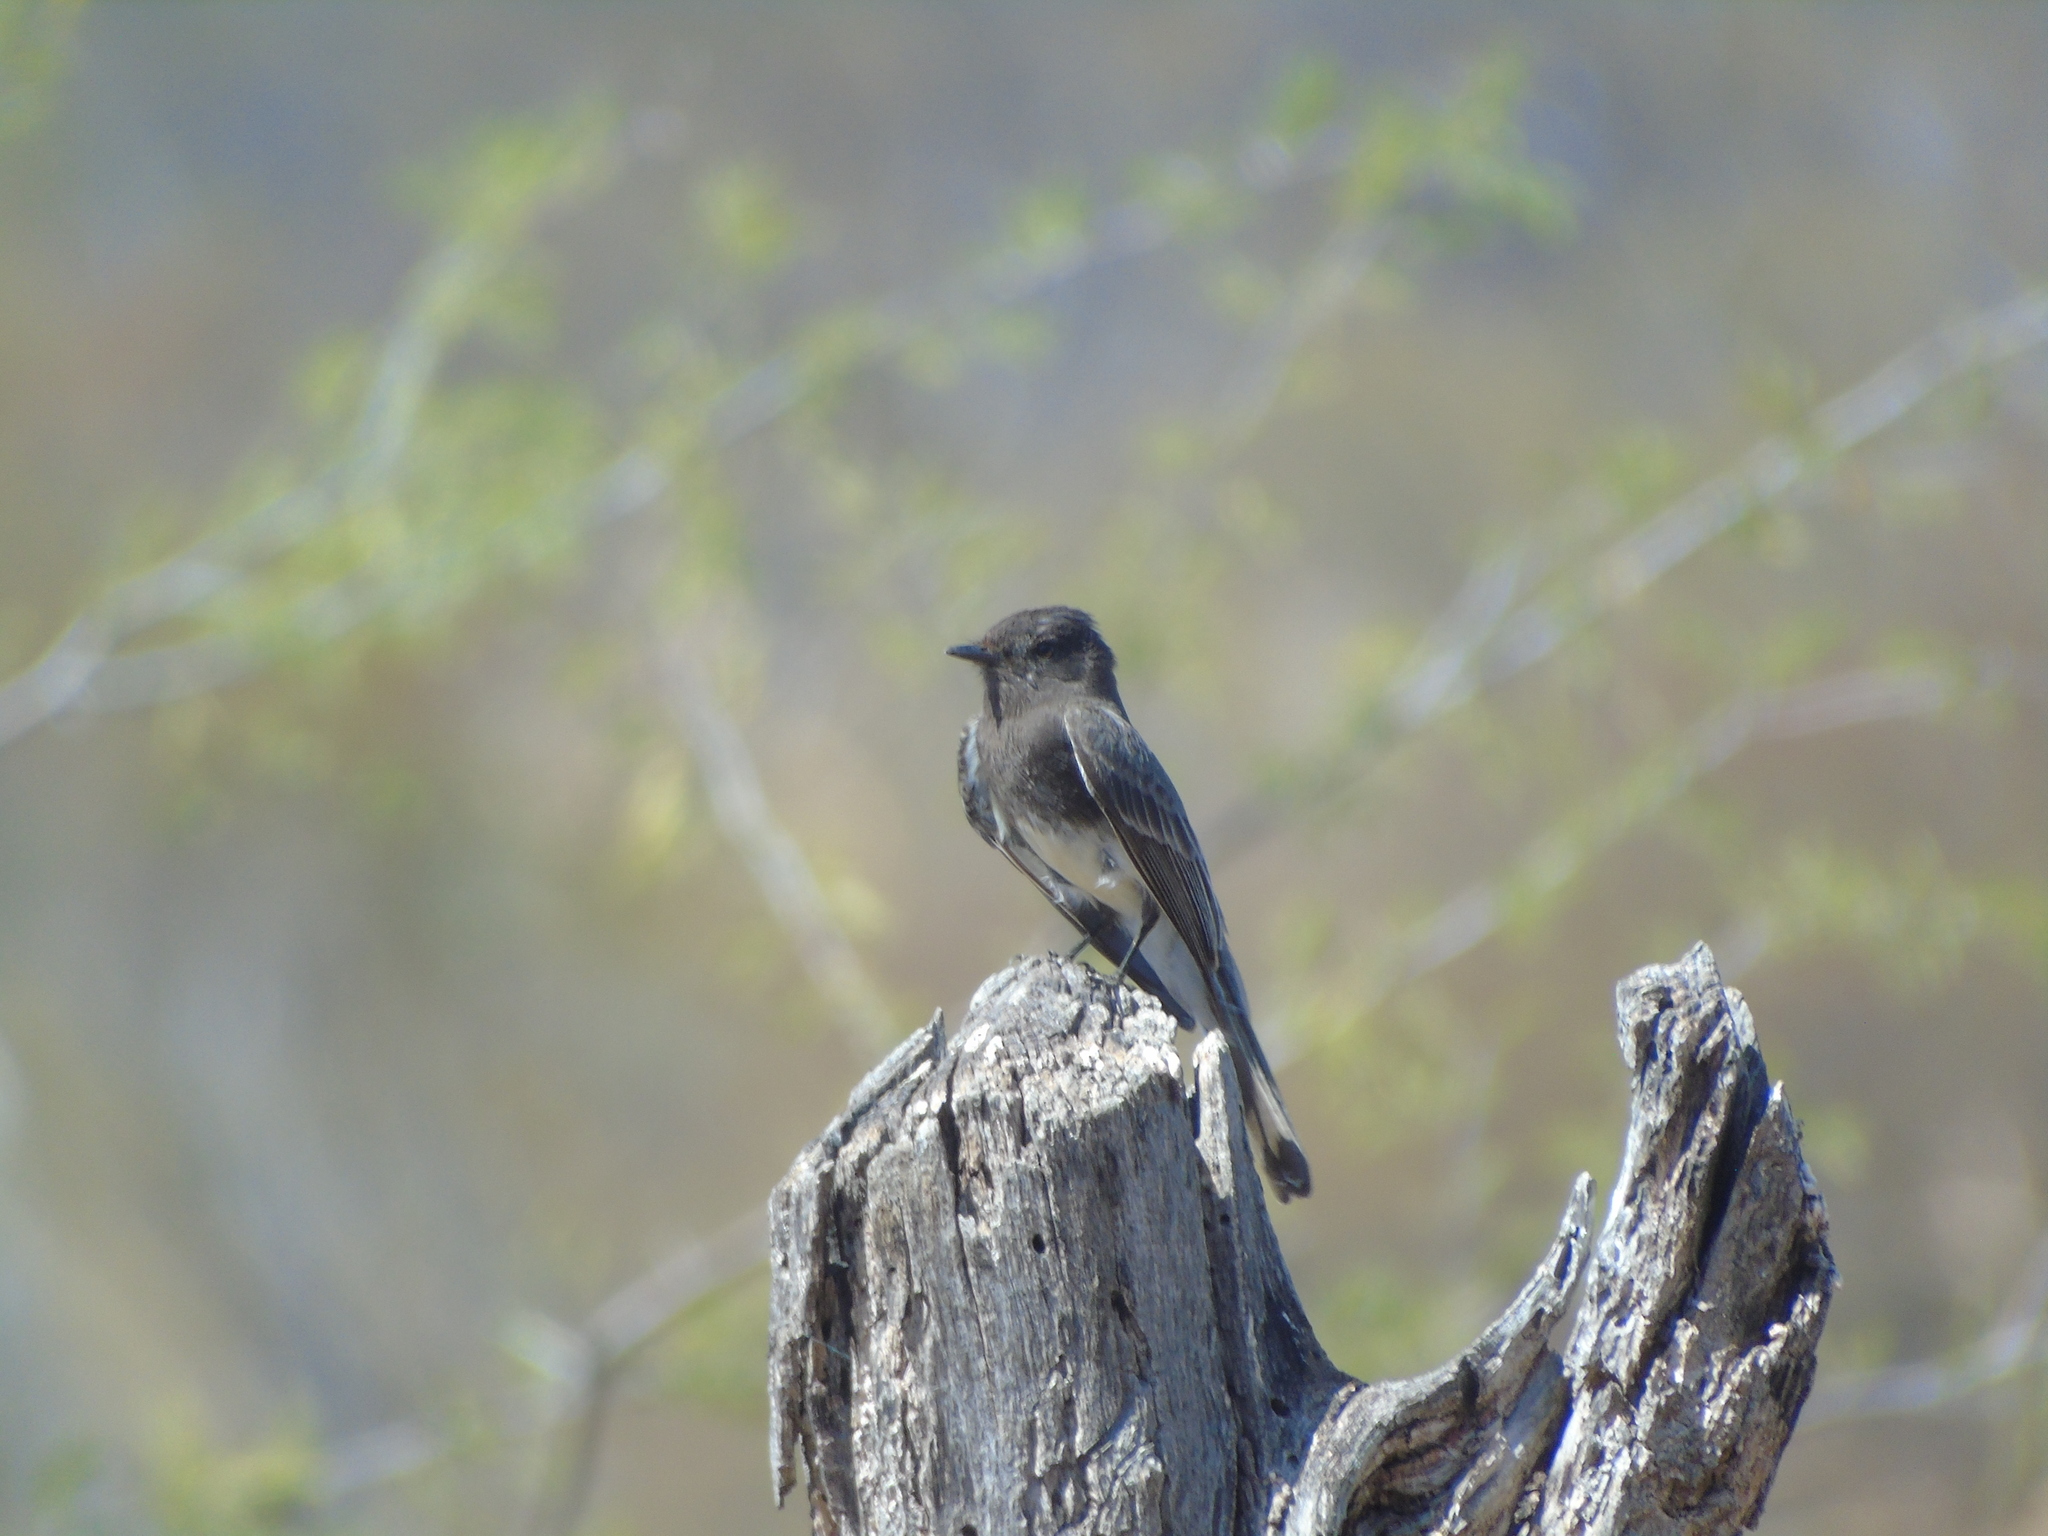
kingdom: Animalia
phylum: Chordata
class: Aves
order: Passeriformes
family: Tyrannidae
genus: Sayornis
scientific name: Sayornis nigricans
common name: Black phoebe
